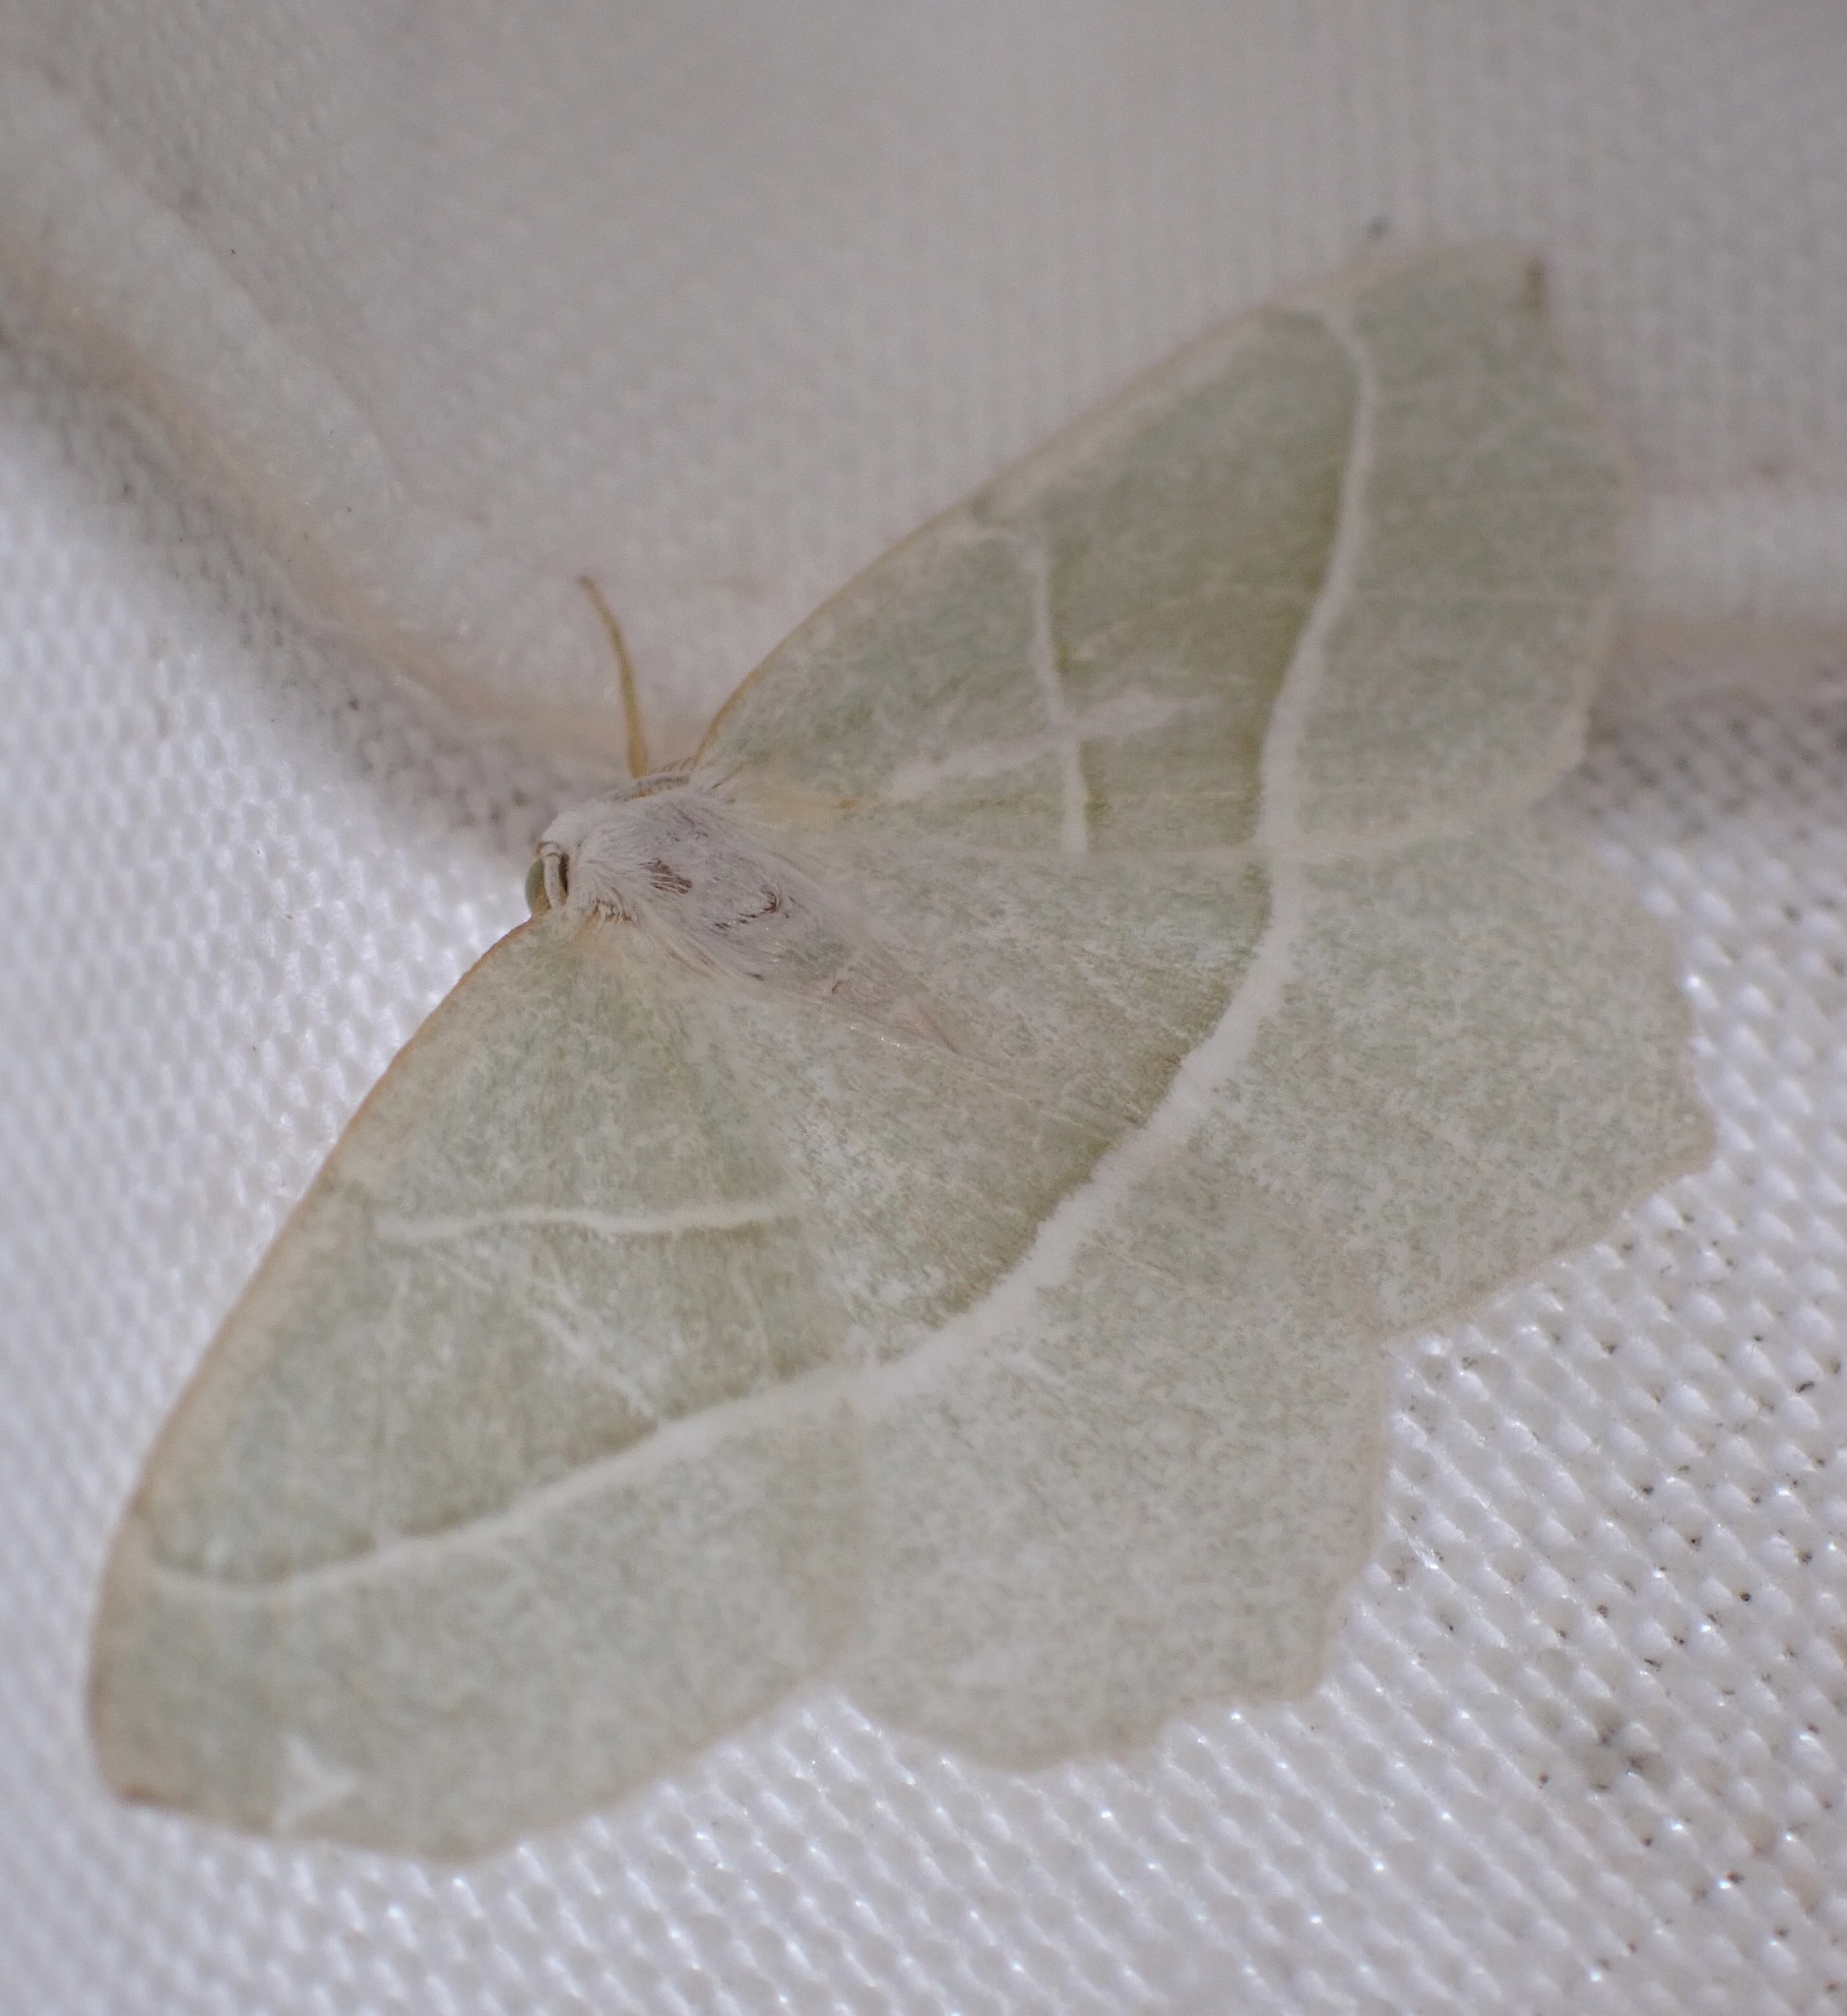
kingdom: Animalia
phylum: Arthropoda
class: Insecta
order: Lepidoptera
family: Geometridae
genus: Campaea
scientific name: Campaea margaritaria
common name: Light emerald
